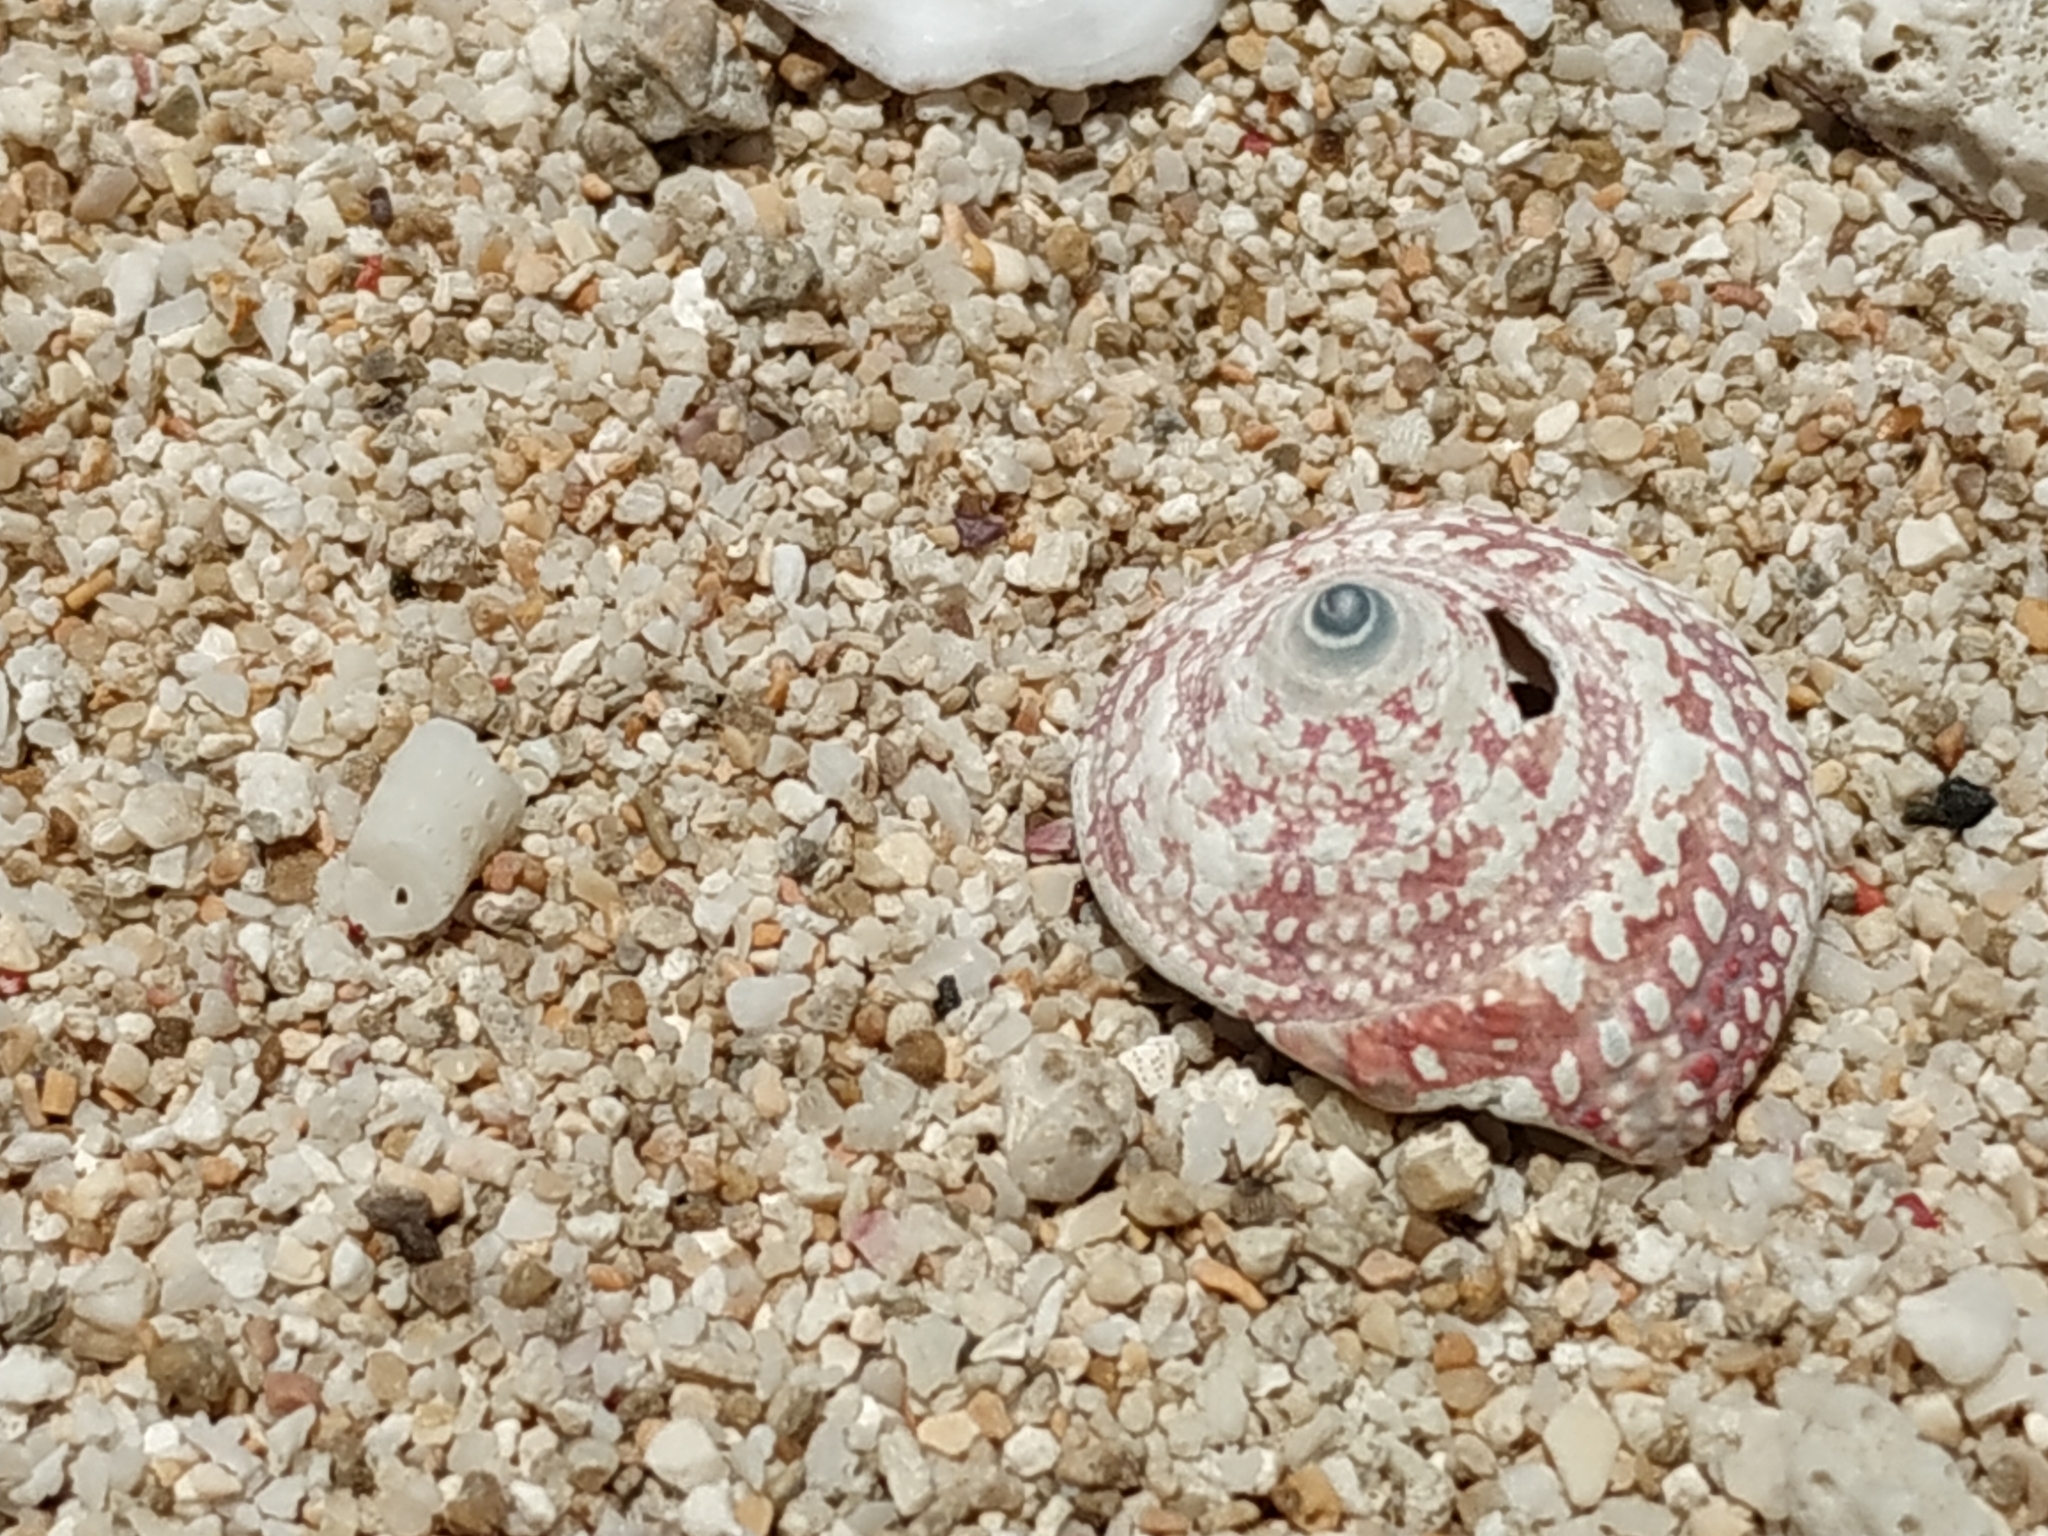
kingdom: Animalia
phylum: Mollusca
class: Gastropoda
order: Trochida
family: Trochidae
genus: Trochus
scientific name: Trochus stellatus
